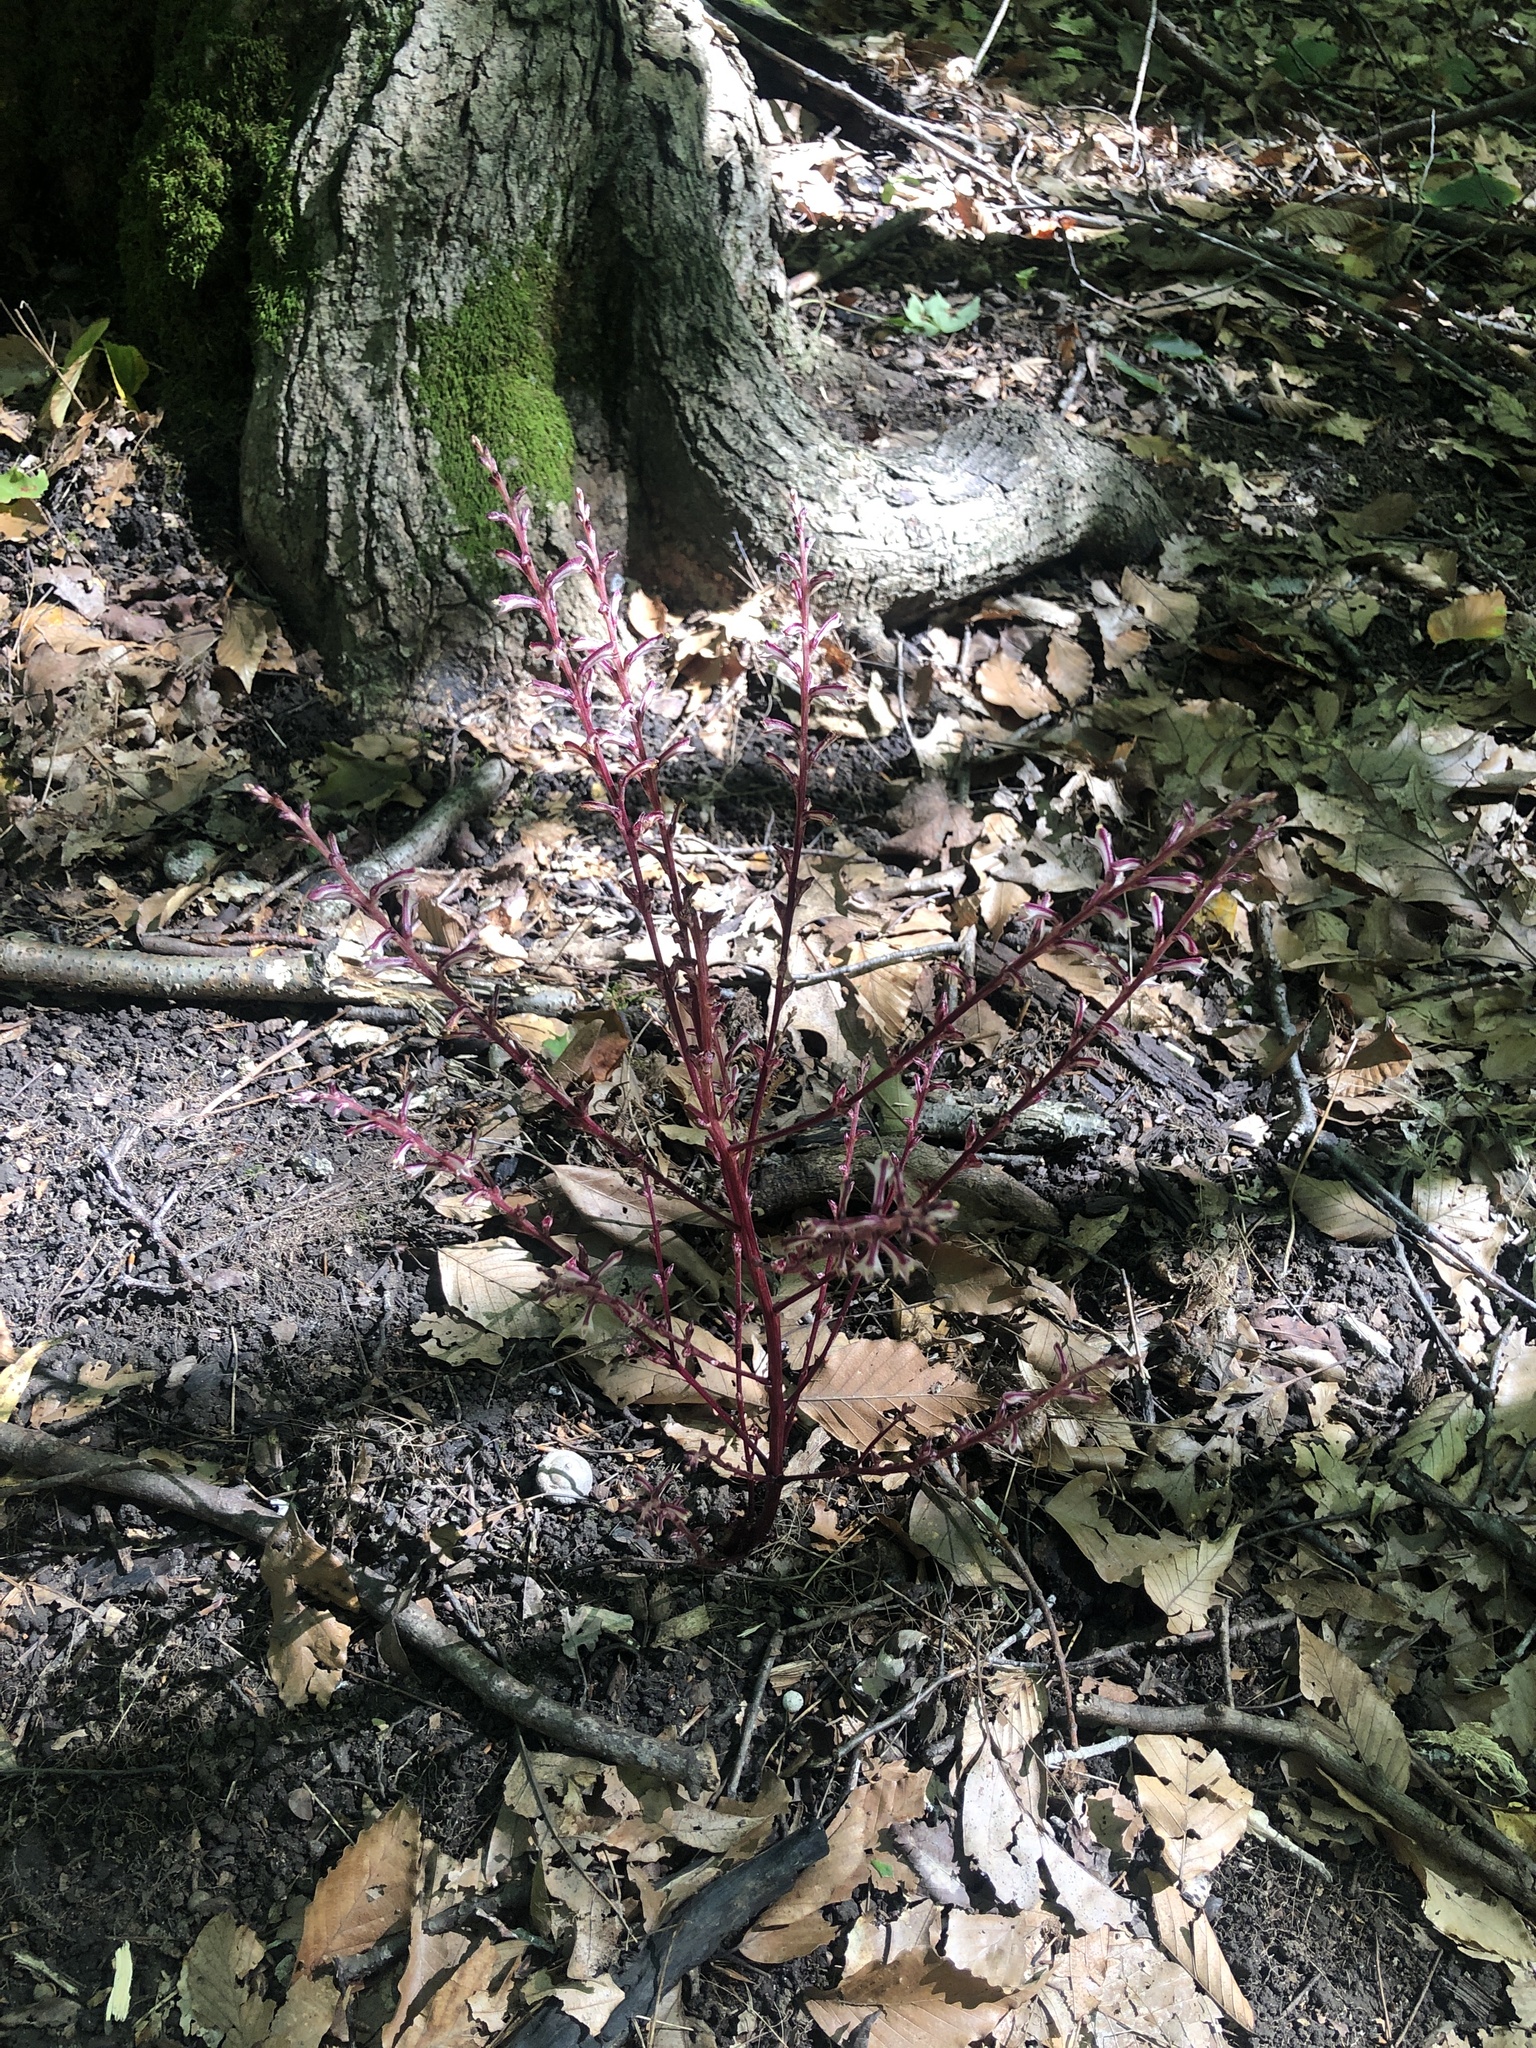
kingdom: Plantae
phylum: Tracheophyta
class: Magnoliopsida
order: Lamiales
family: Orobanchaceae
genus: Epifagus
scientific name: Epifagus virginiana
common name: Beechdrops
